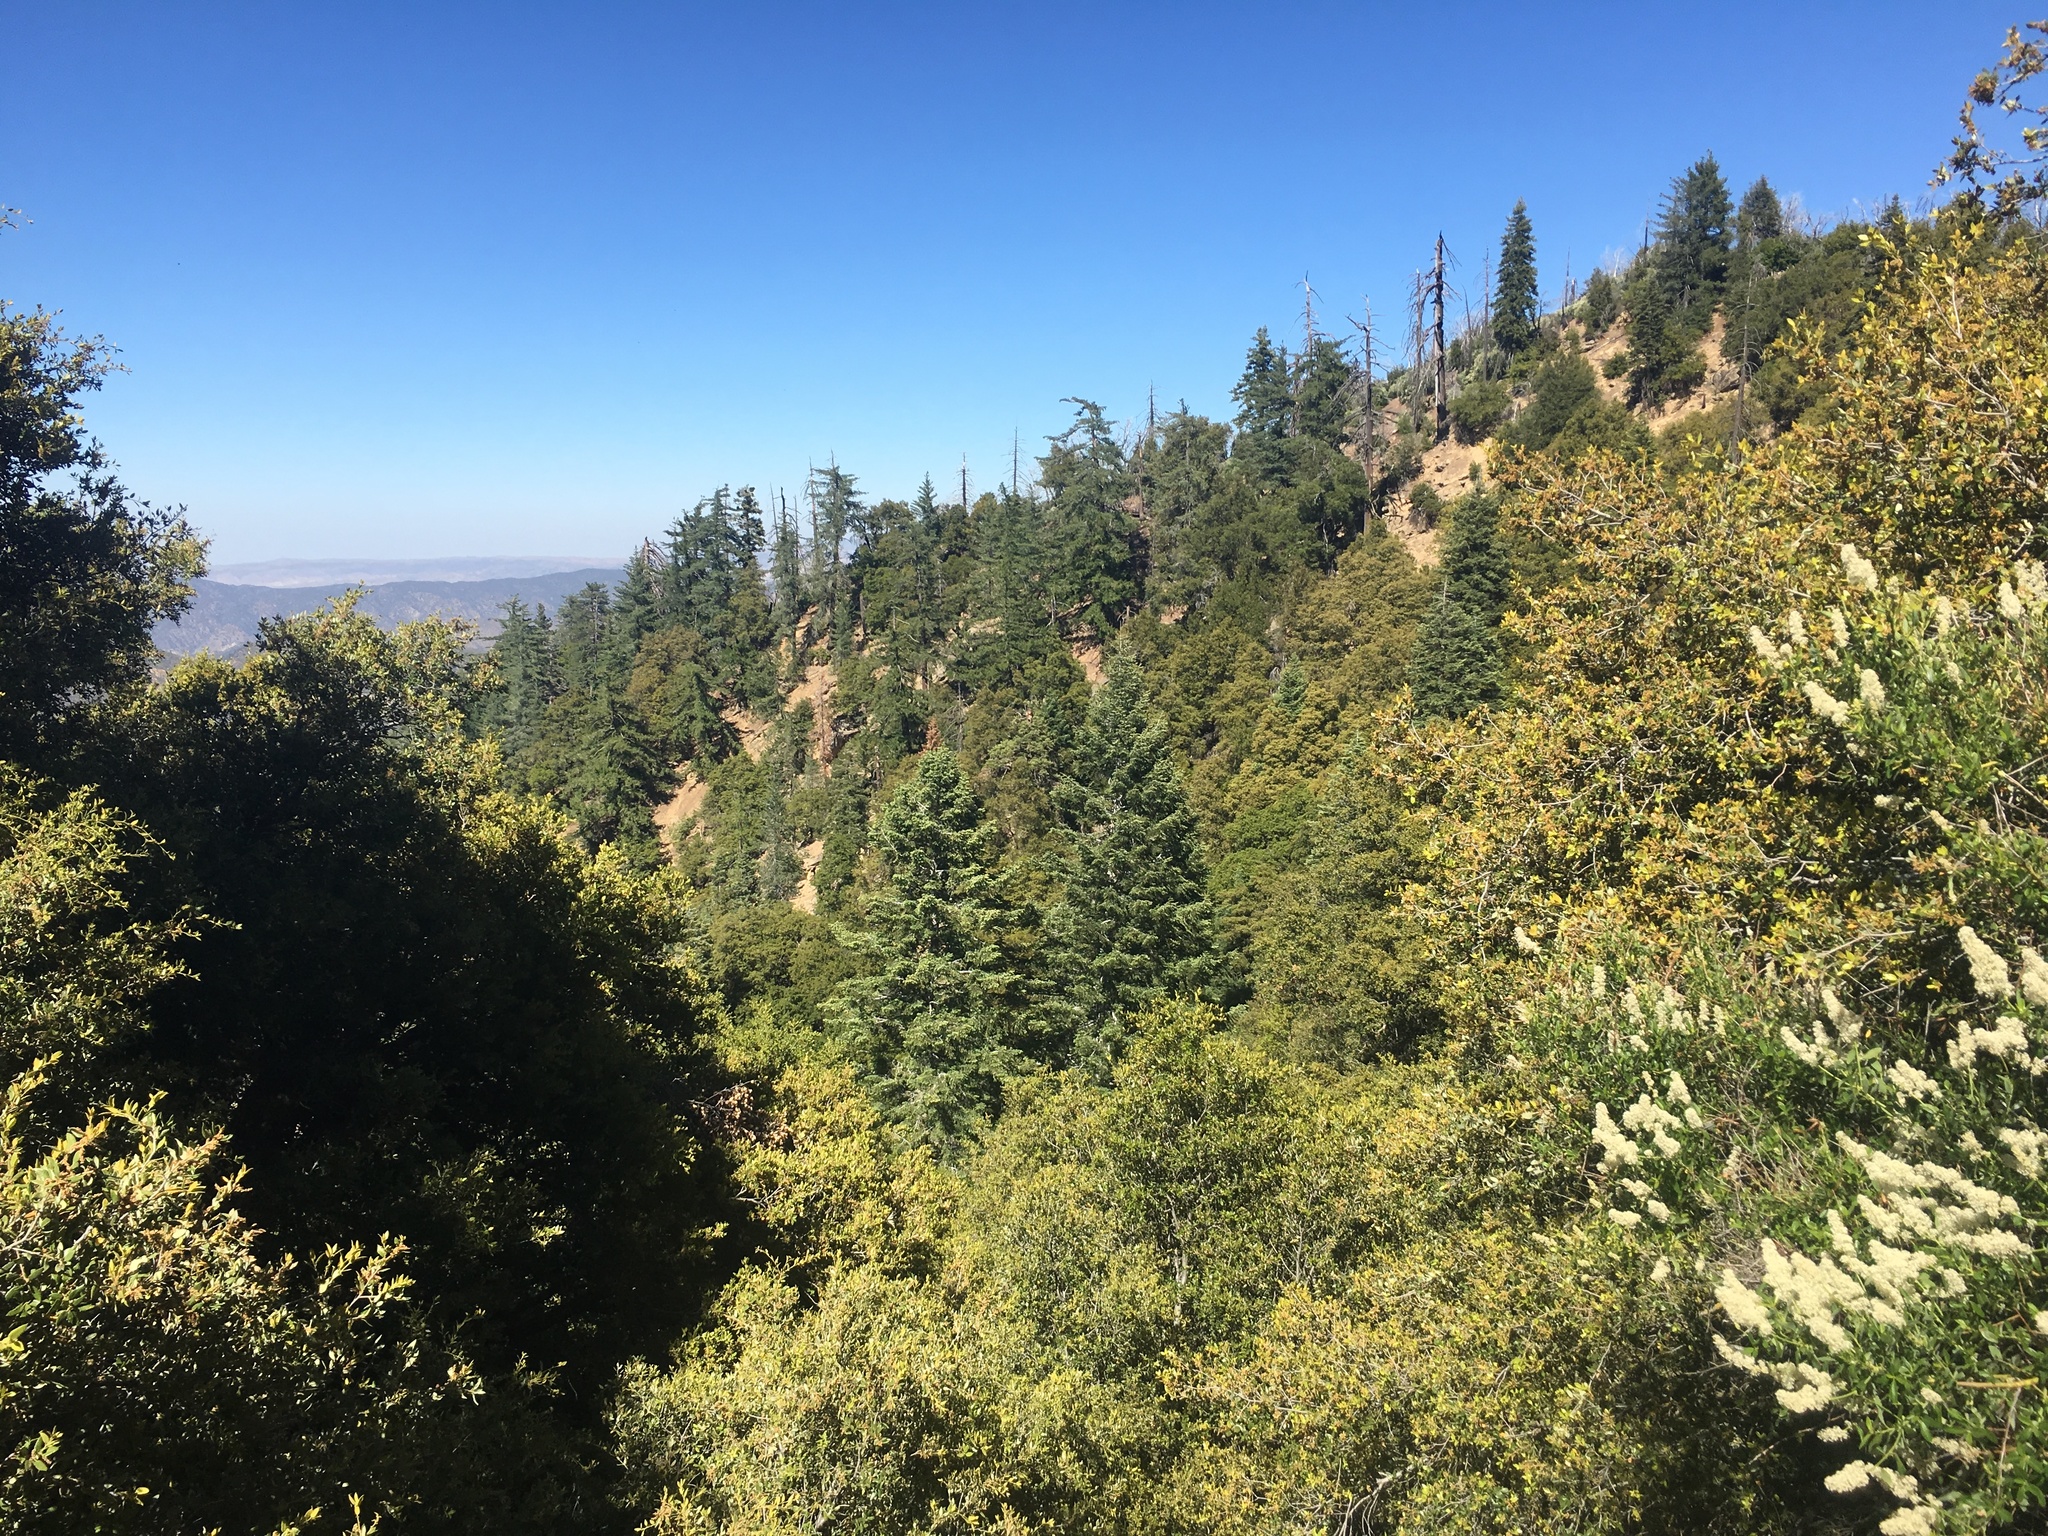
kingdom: Plantae
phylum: Tracheophyta
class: Pinopsida
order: Pinales
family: Pinaceae
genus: Pseudotsuga
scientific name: Pseudotsuga macrocarpa
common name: Big-cone douglas-fir
